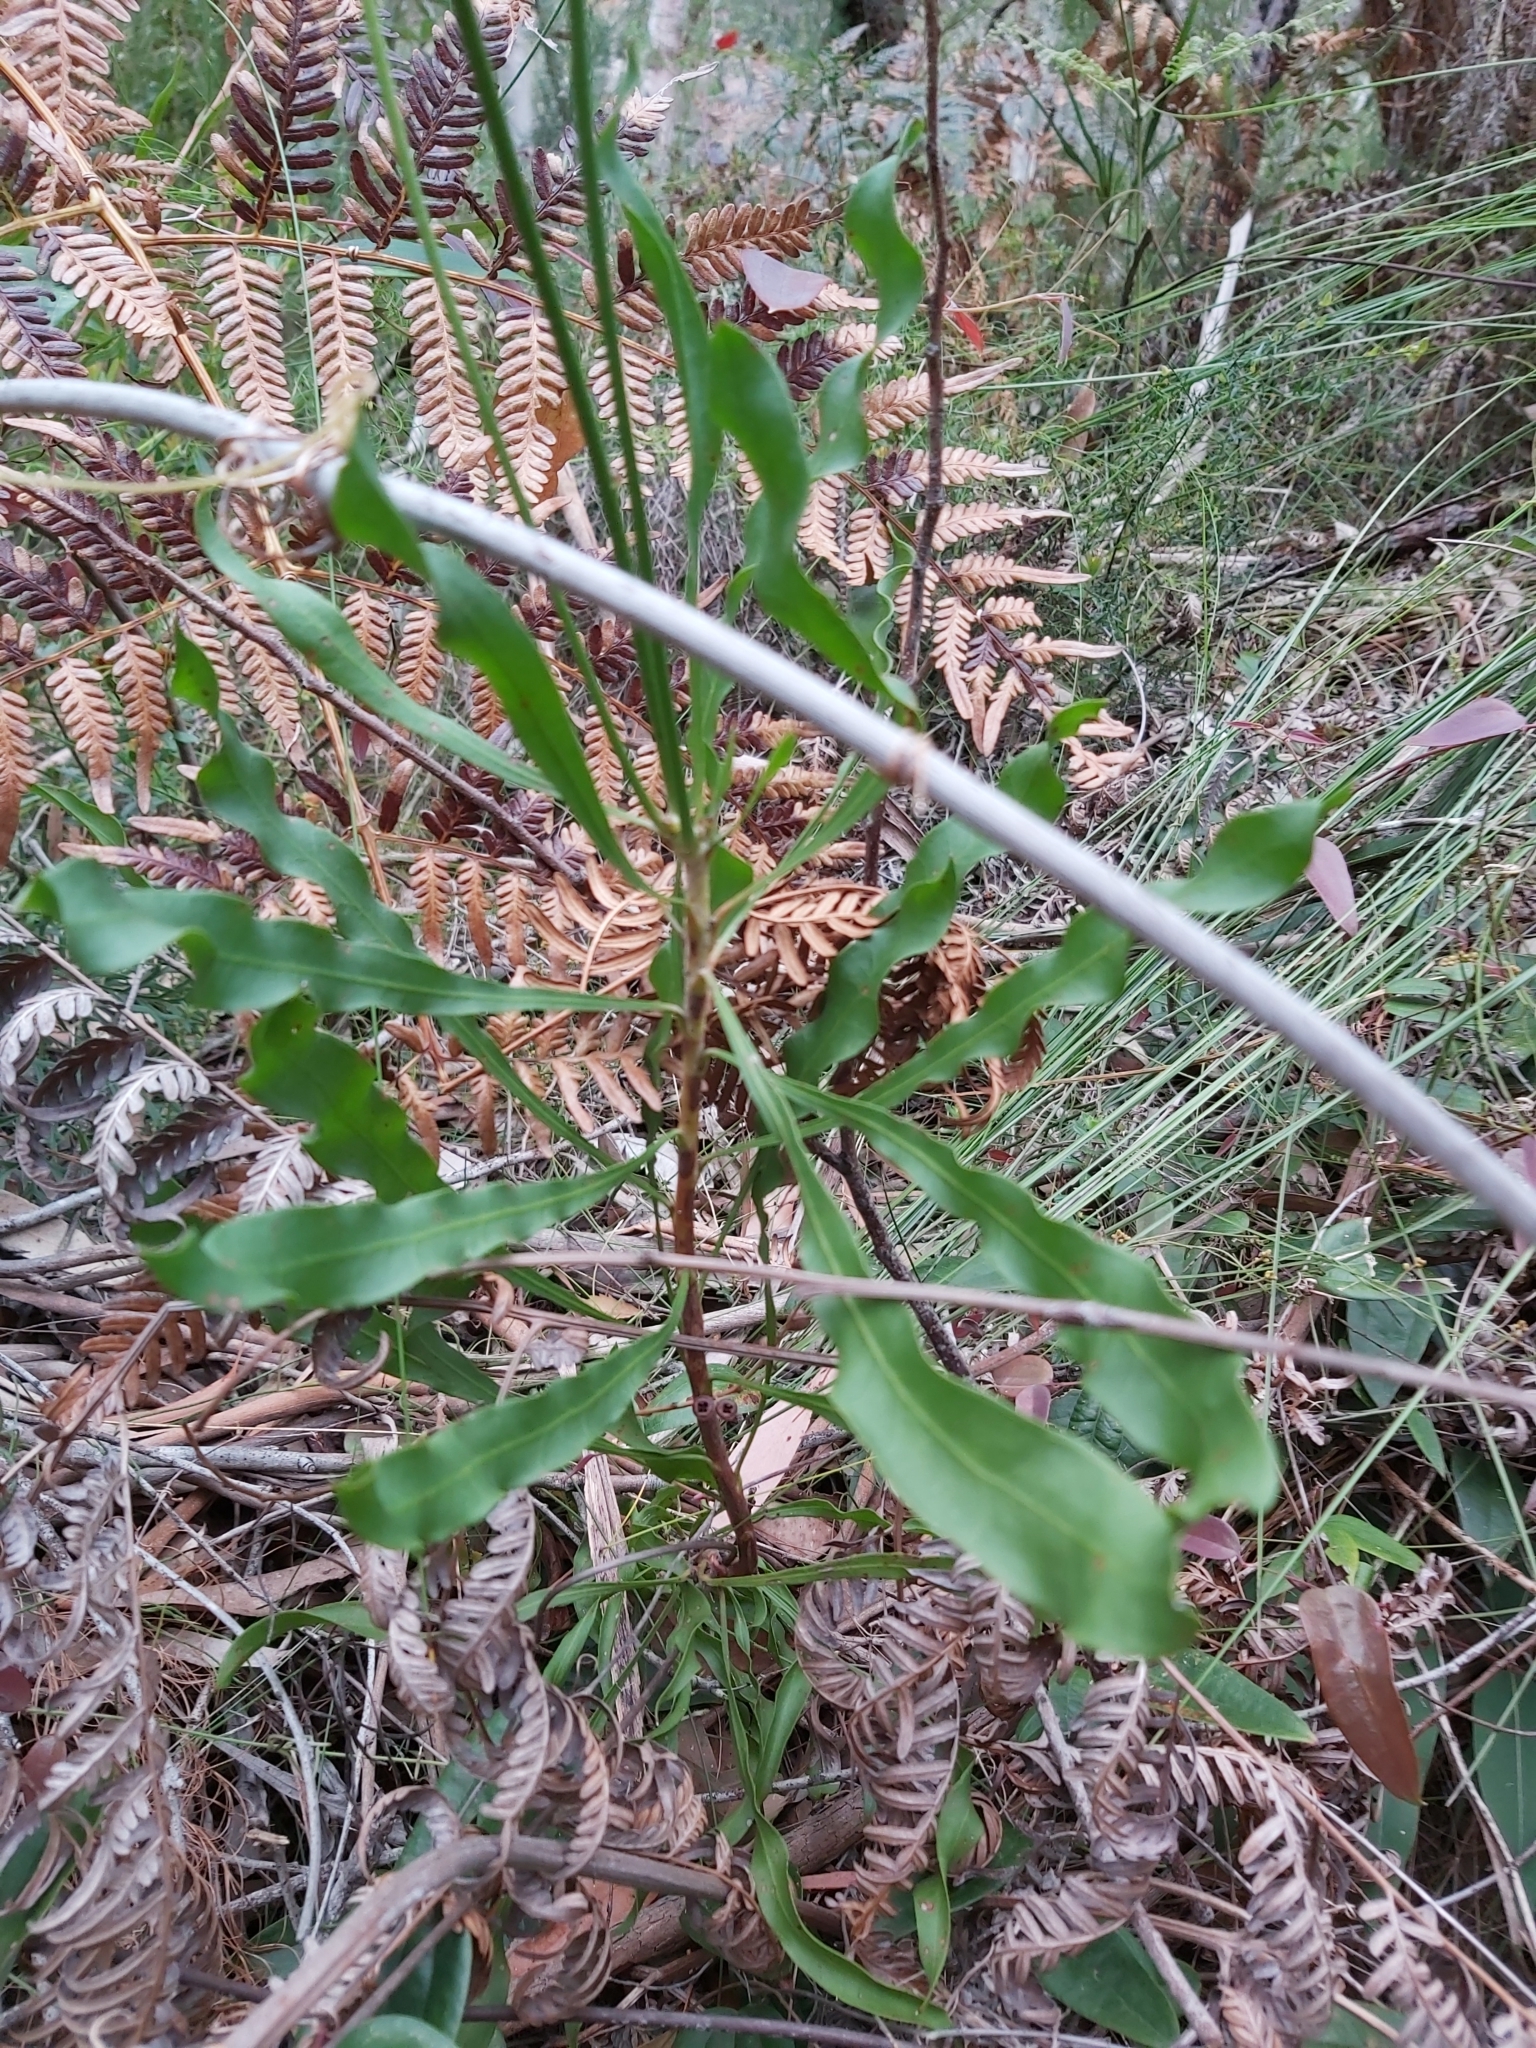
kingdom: Plantae
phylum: Tracheophyta
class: Magnoliopsida
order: Proteales
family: Proteaceae
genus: Conospermum
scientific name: Conospermum longifolium
